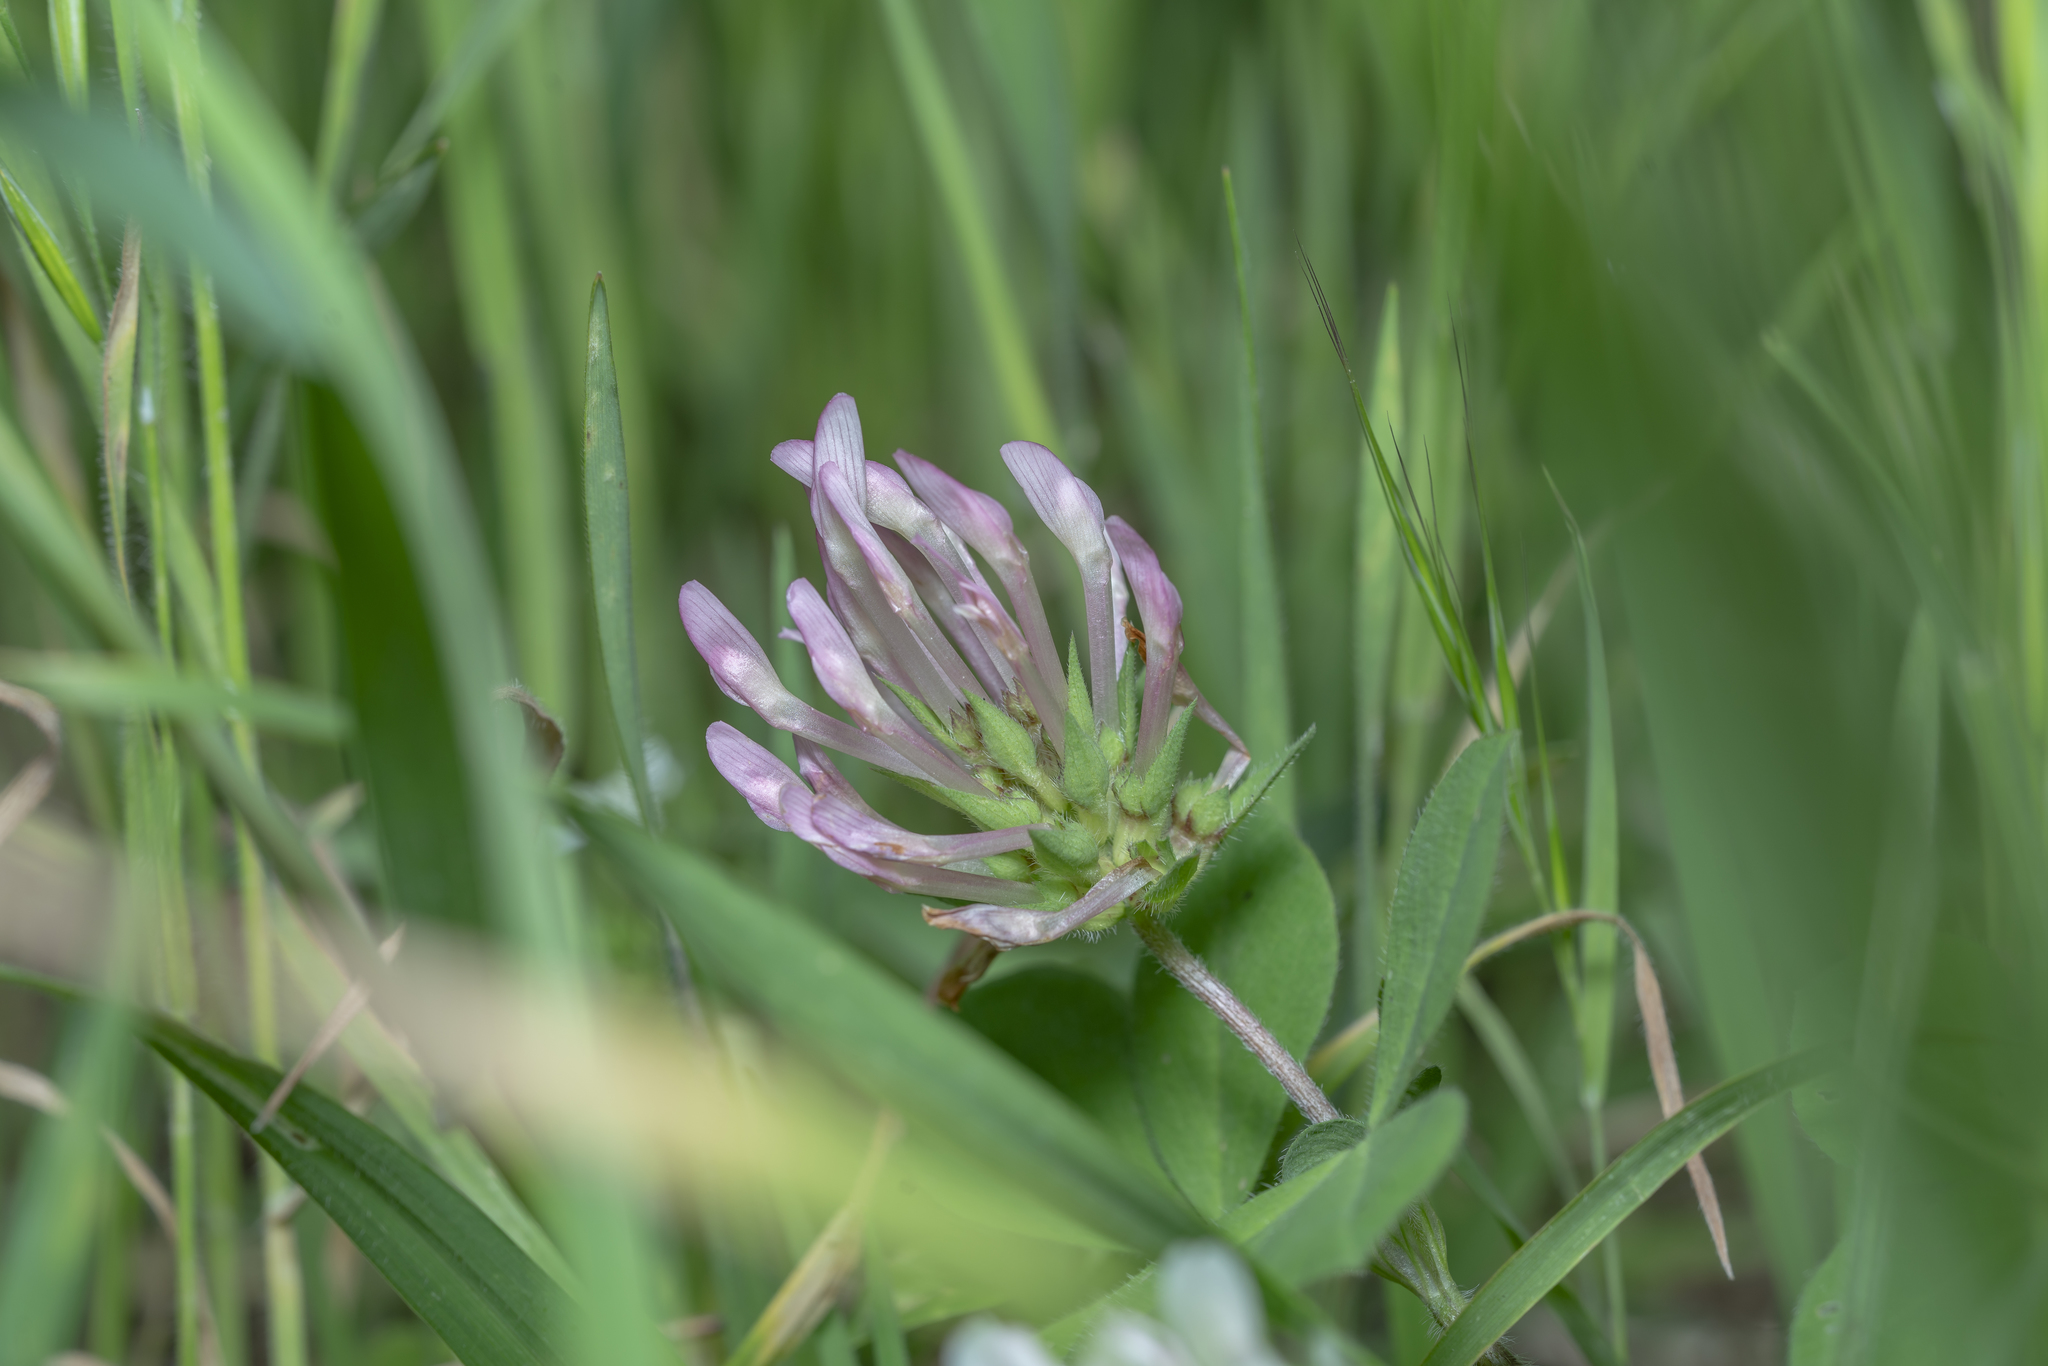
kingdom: Plantae
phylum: Tracheophyta
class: Magnoliopsida
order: Fabales
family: Fabaceae
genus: Trifolium
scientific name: Trifolium clypeatum
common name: Shield clover
